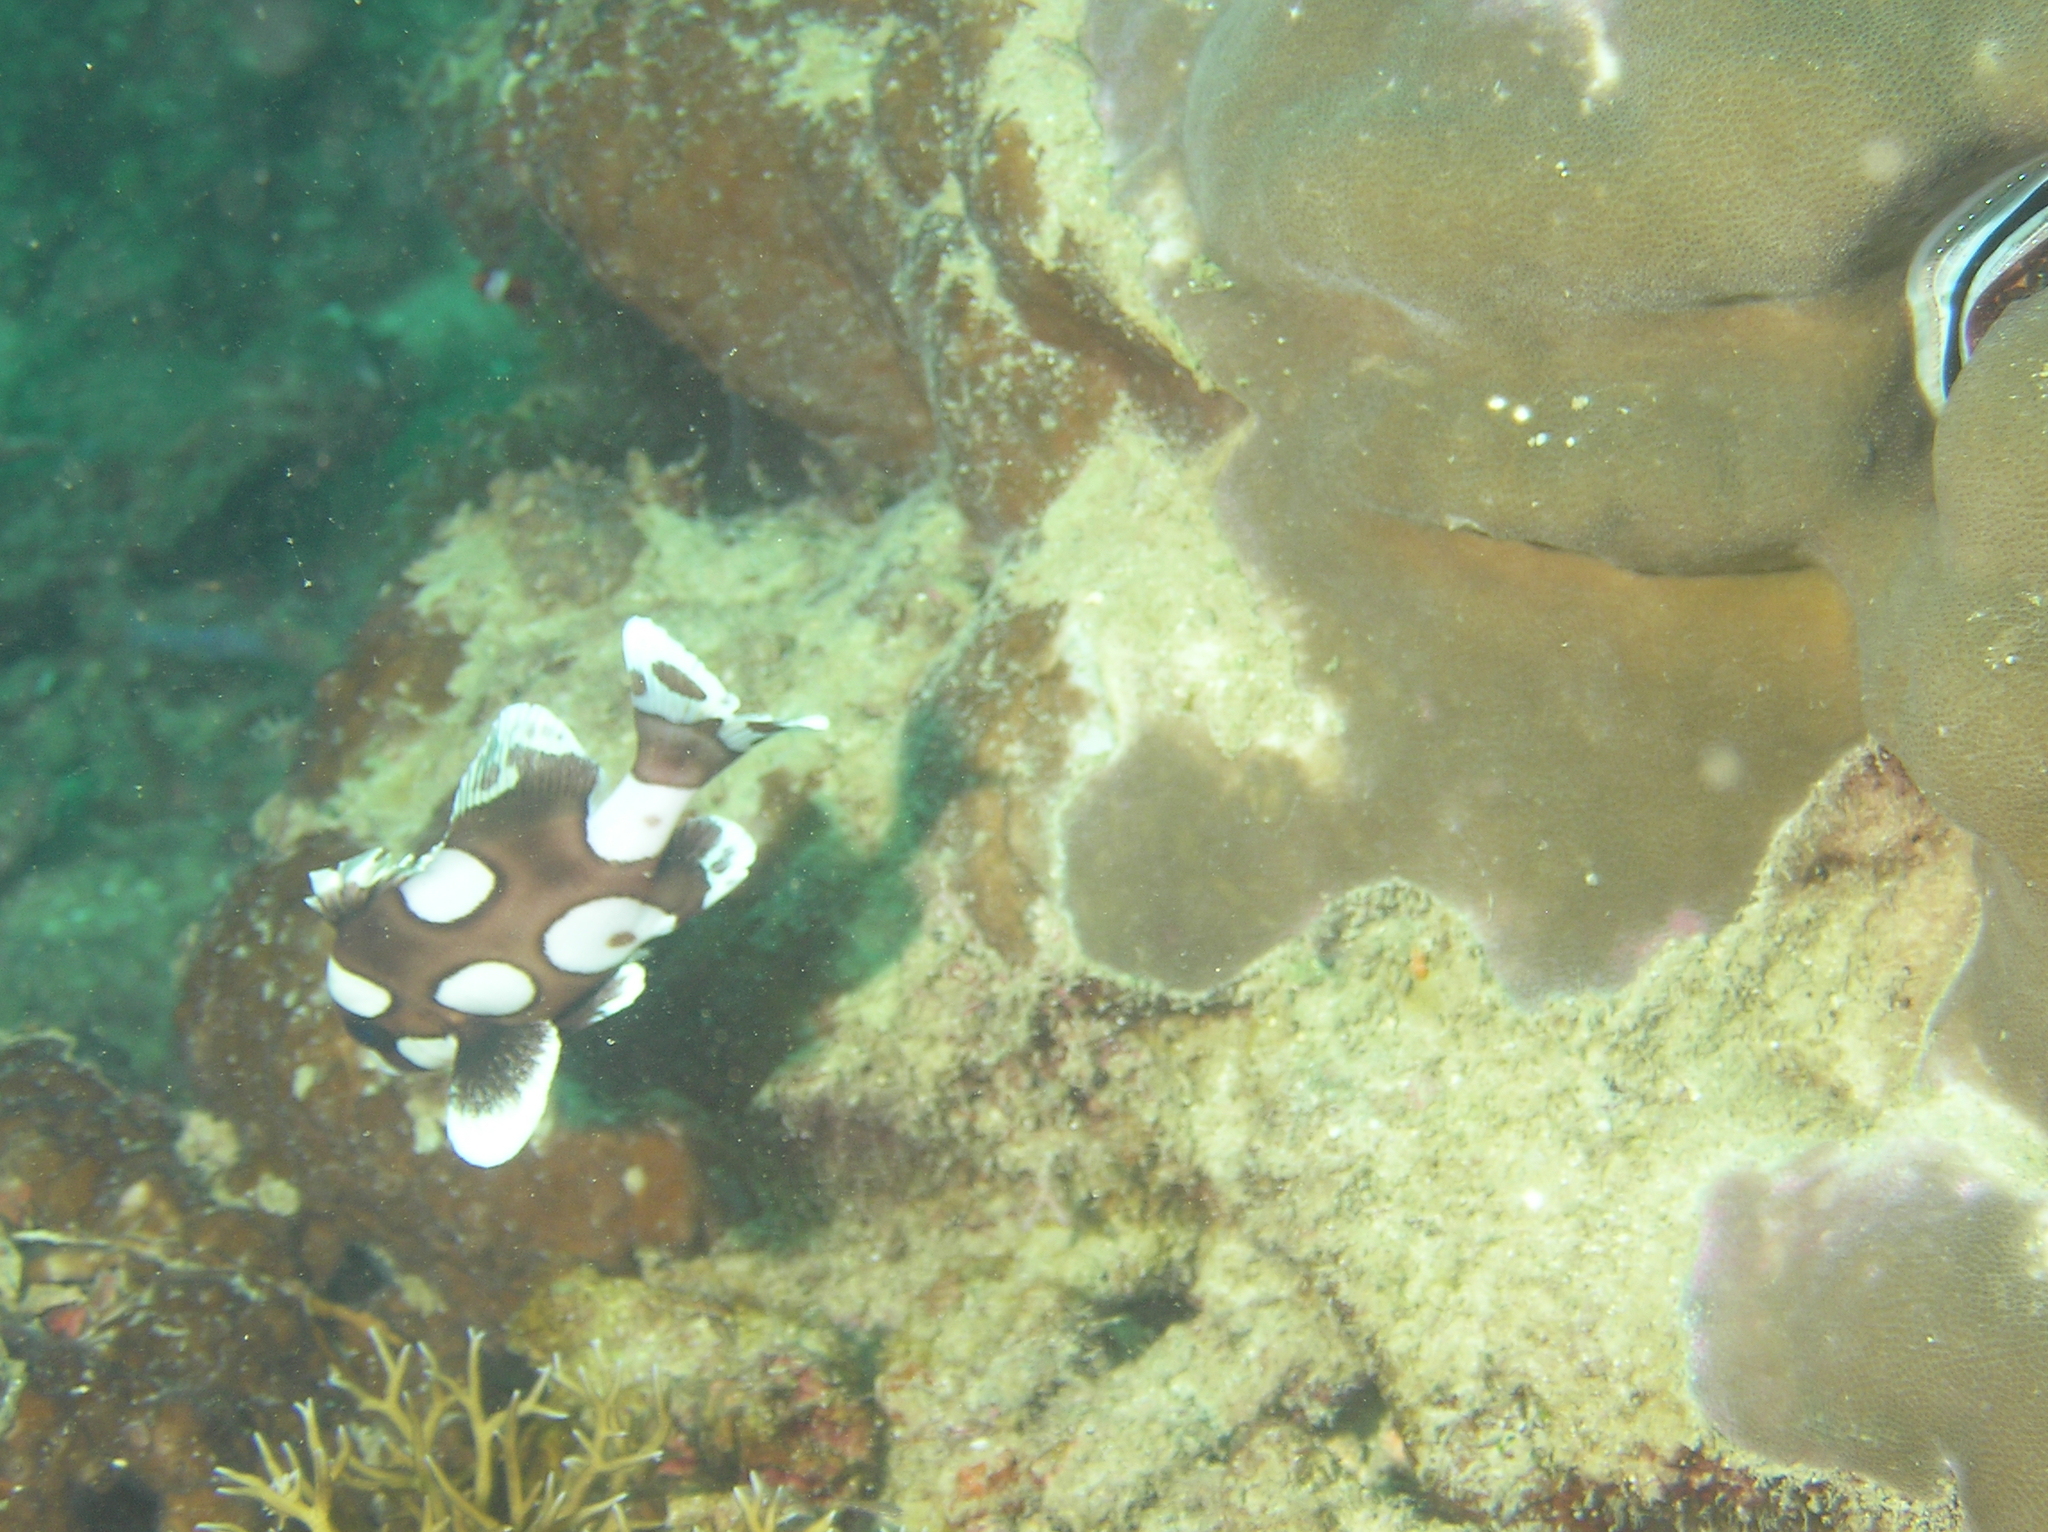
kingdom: Animalia
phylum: Chordata
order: Perciformes
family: Haemulidae
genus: Plectorhinchus
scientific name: Plectorhinchus chaetodonoides
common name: Harlequin sweetlips
